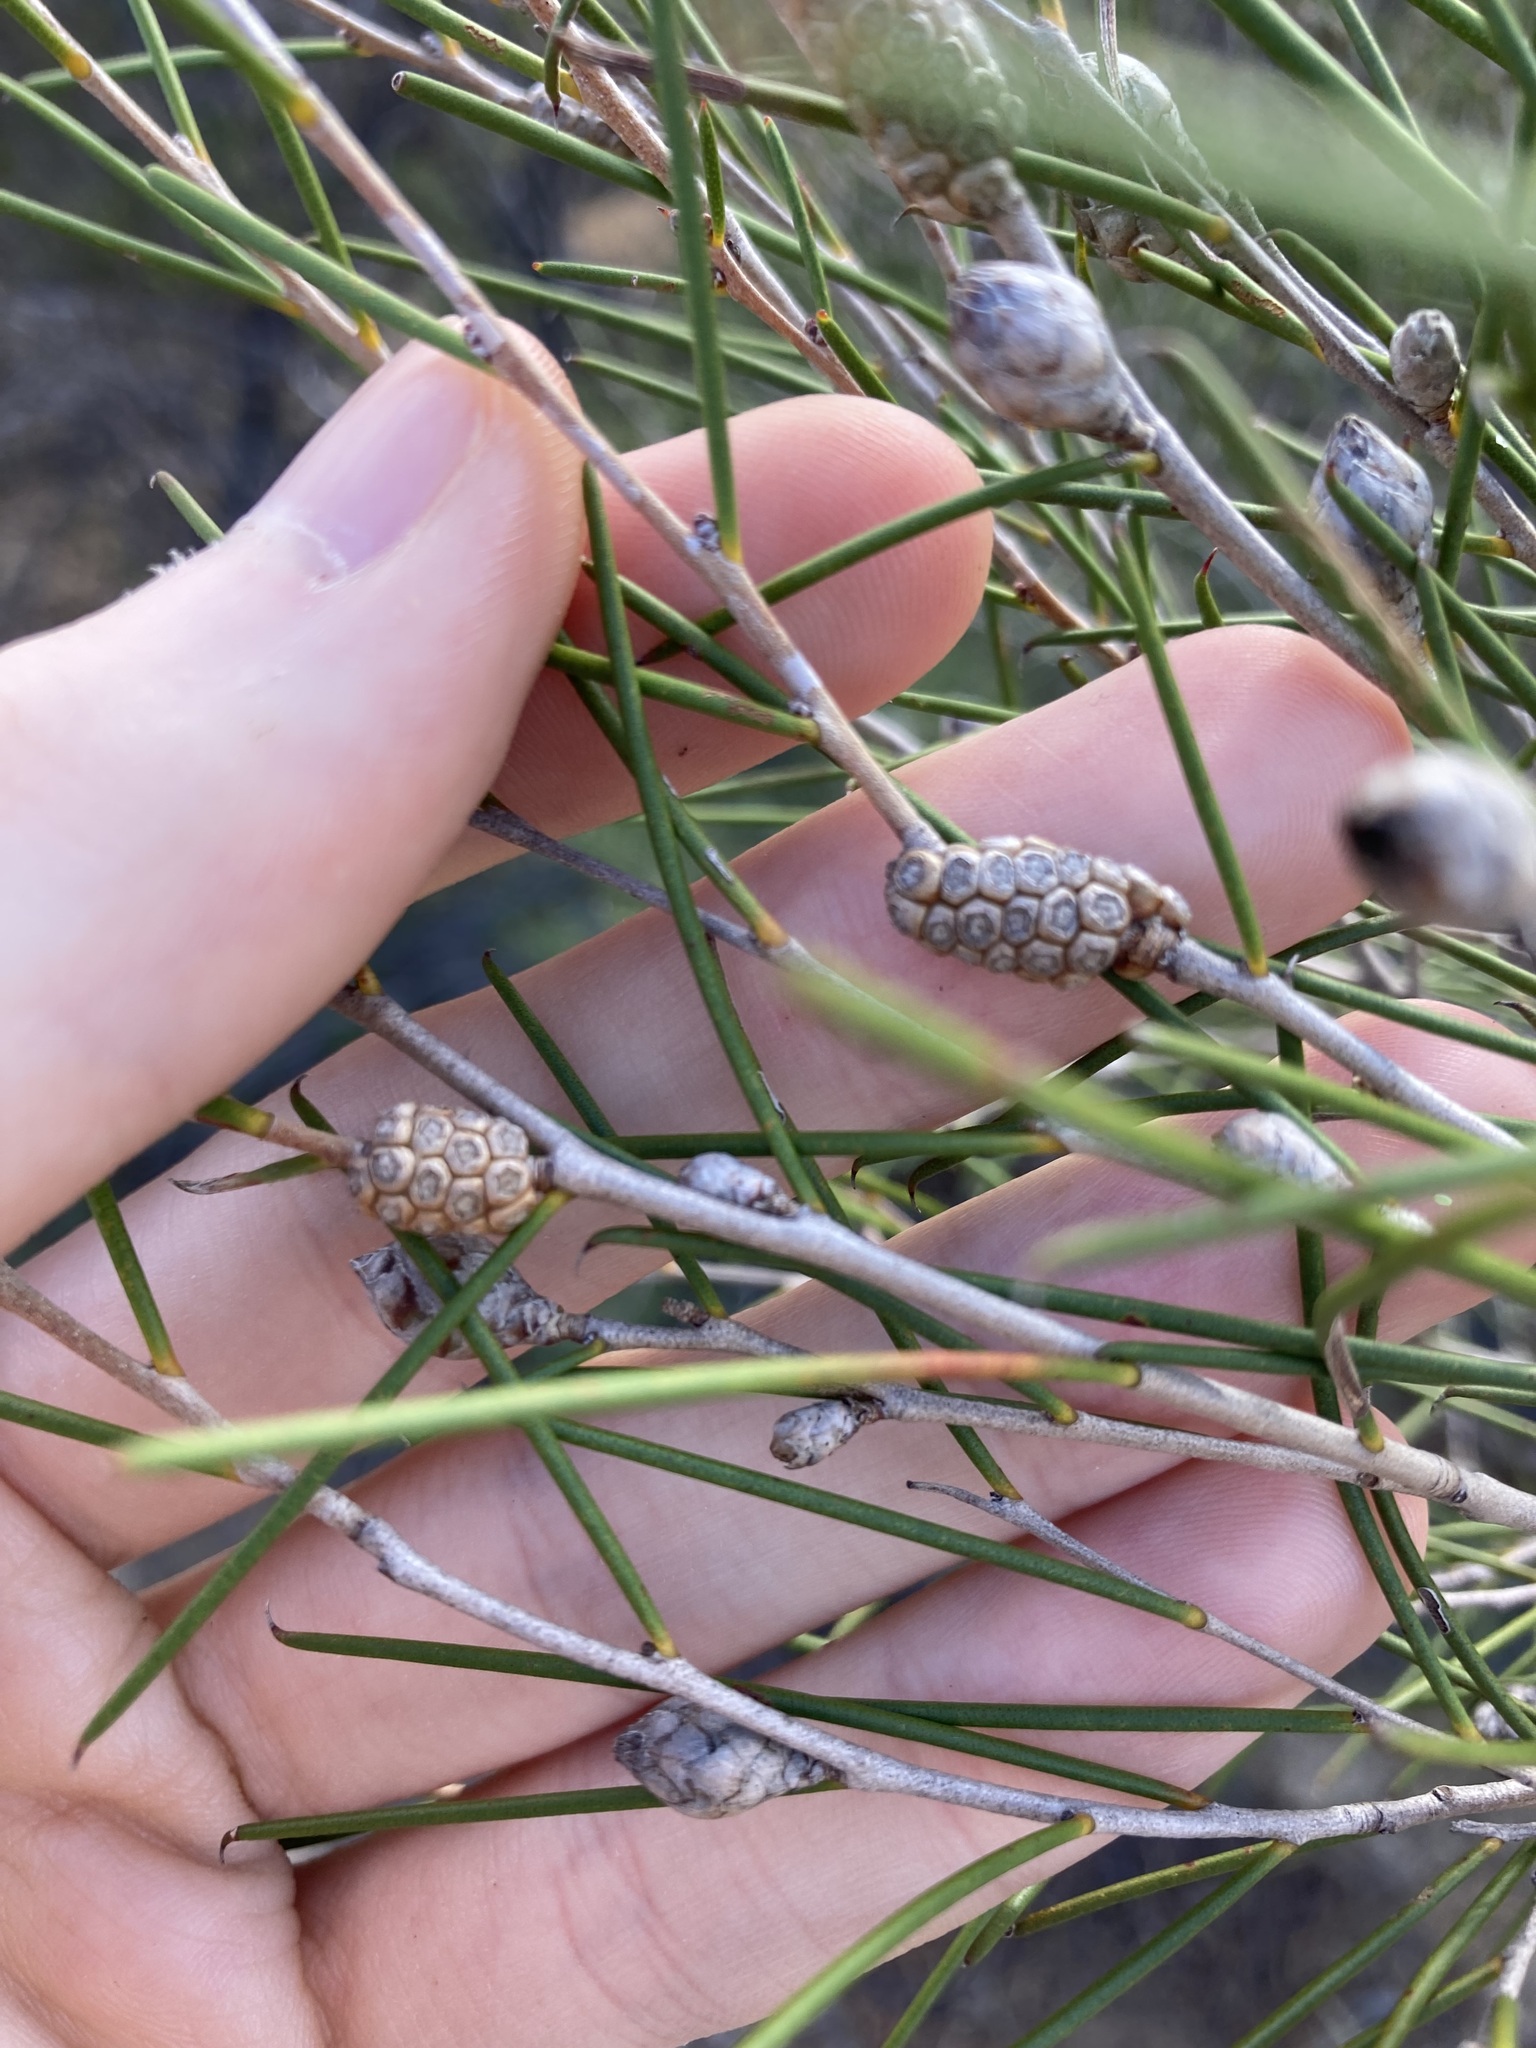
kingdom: Plantae
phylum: Tracheophyta
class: Magnoliopsida
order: Myrtales
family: Myrtaceae
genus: Melaleuca
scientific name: Melaleuca concreta
